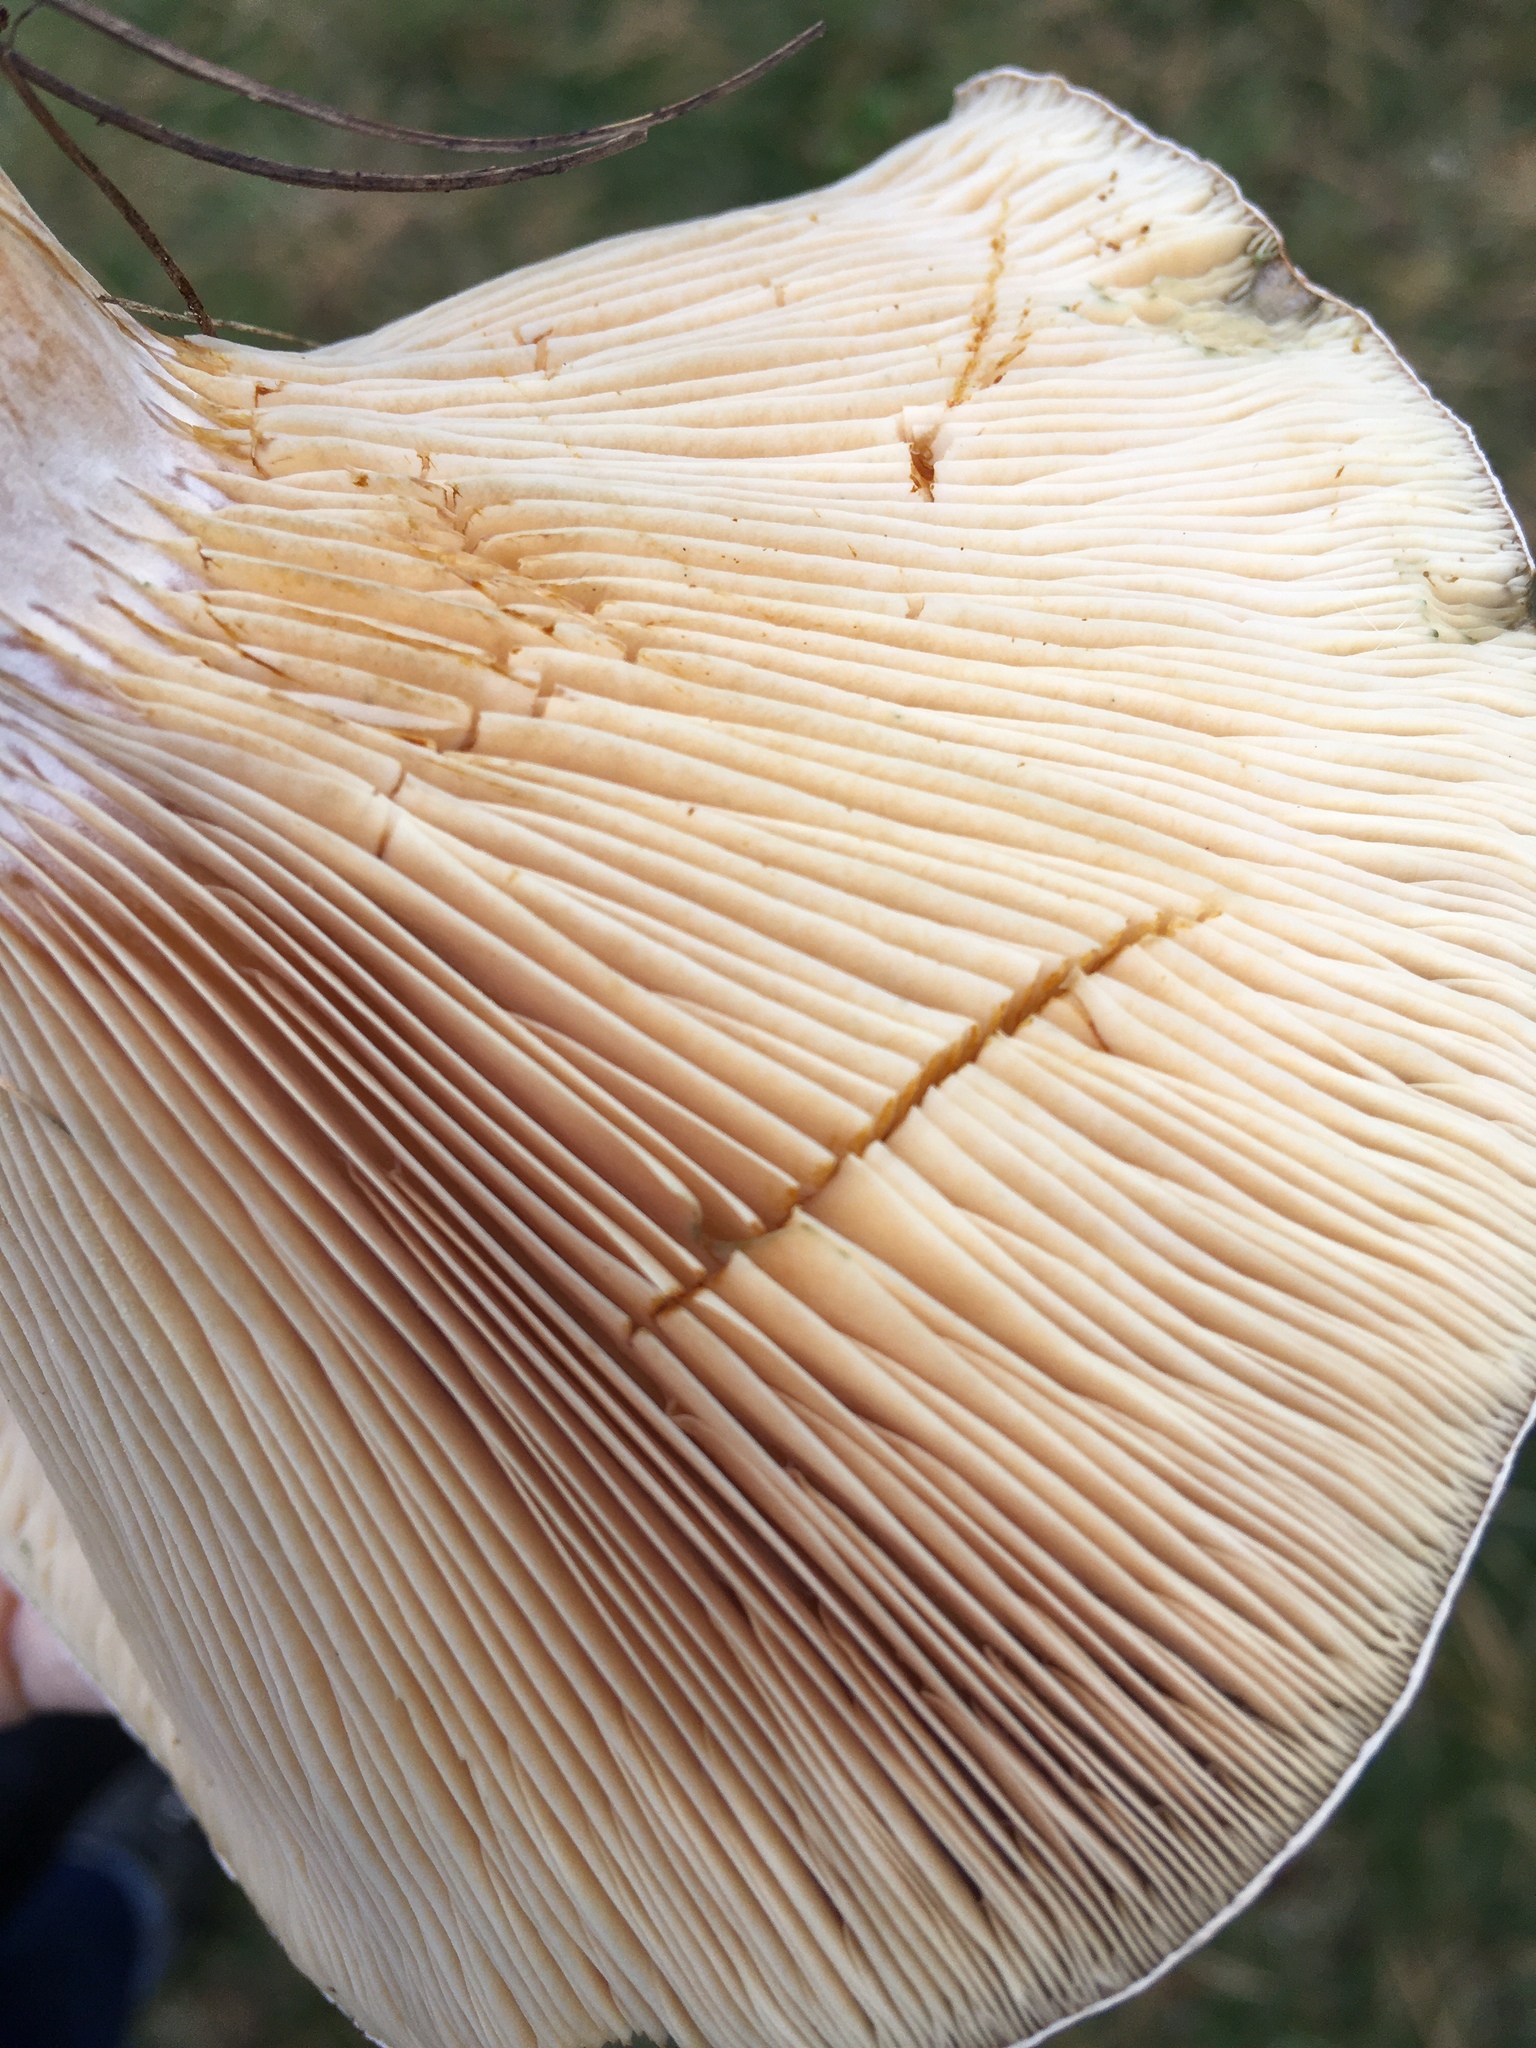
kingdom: Fungi
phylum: Basidiomycota
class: Agaricomycetes
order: Russulales
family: Russulaceae
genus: Lactarius
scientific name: Lactarius chelidonium
